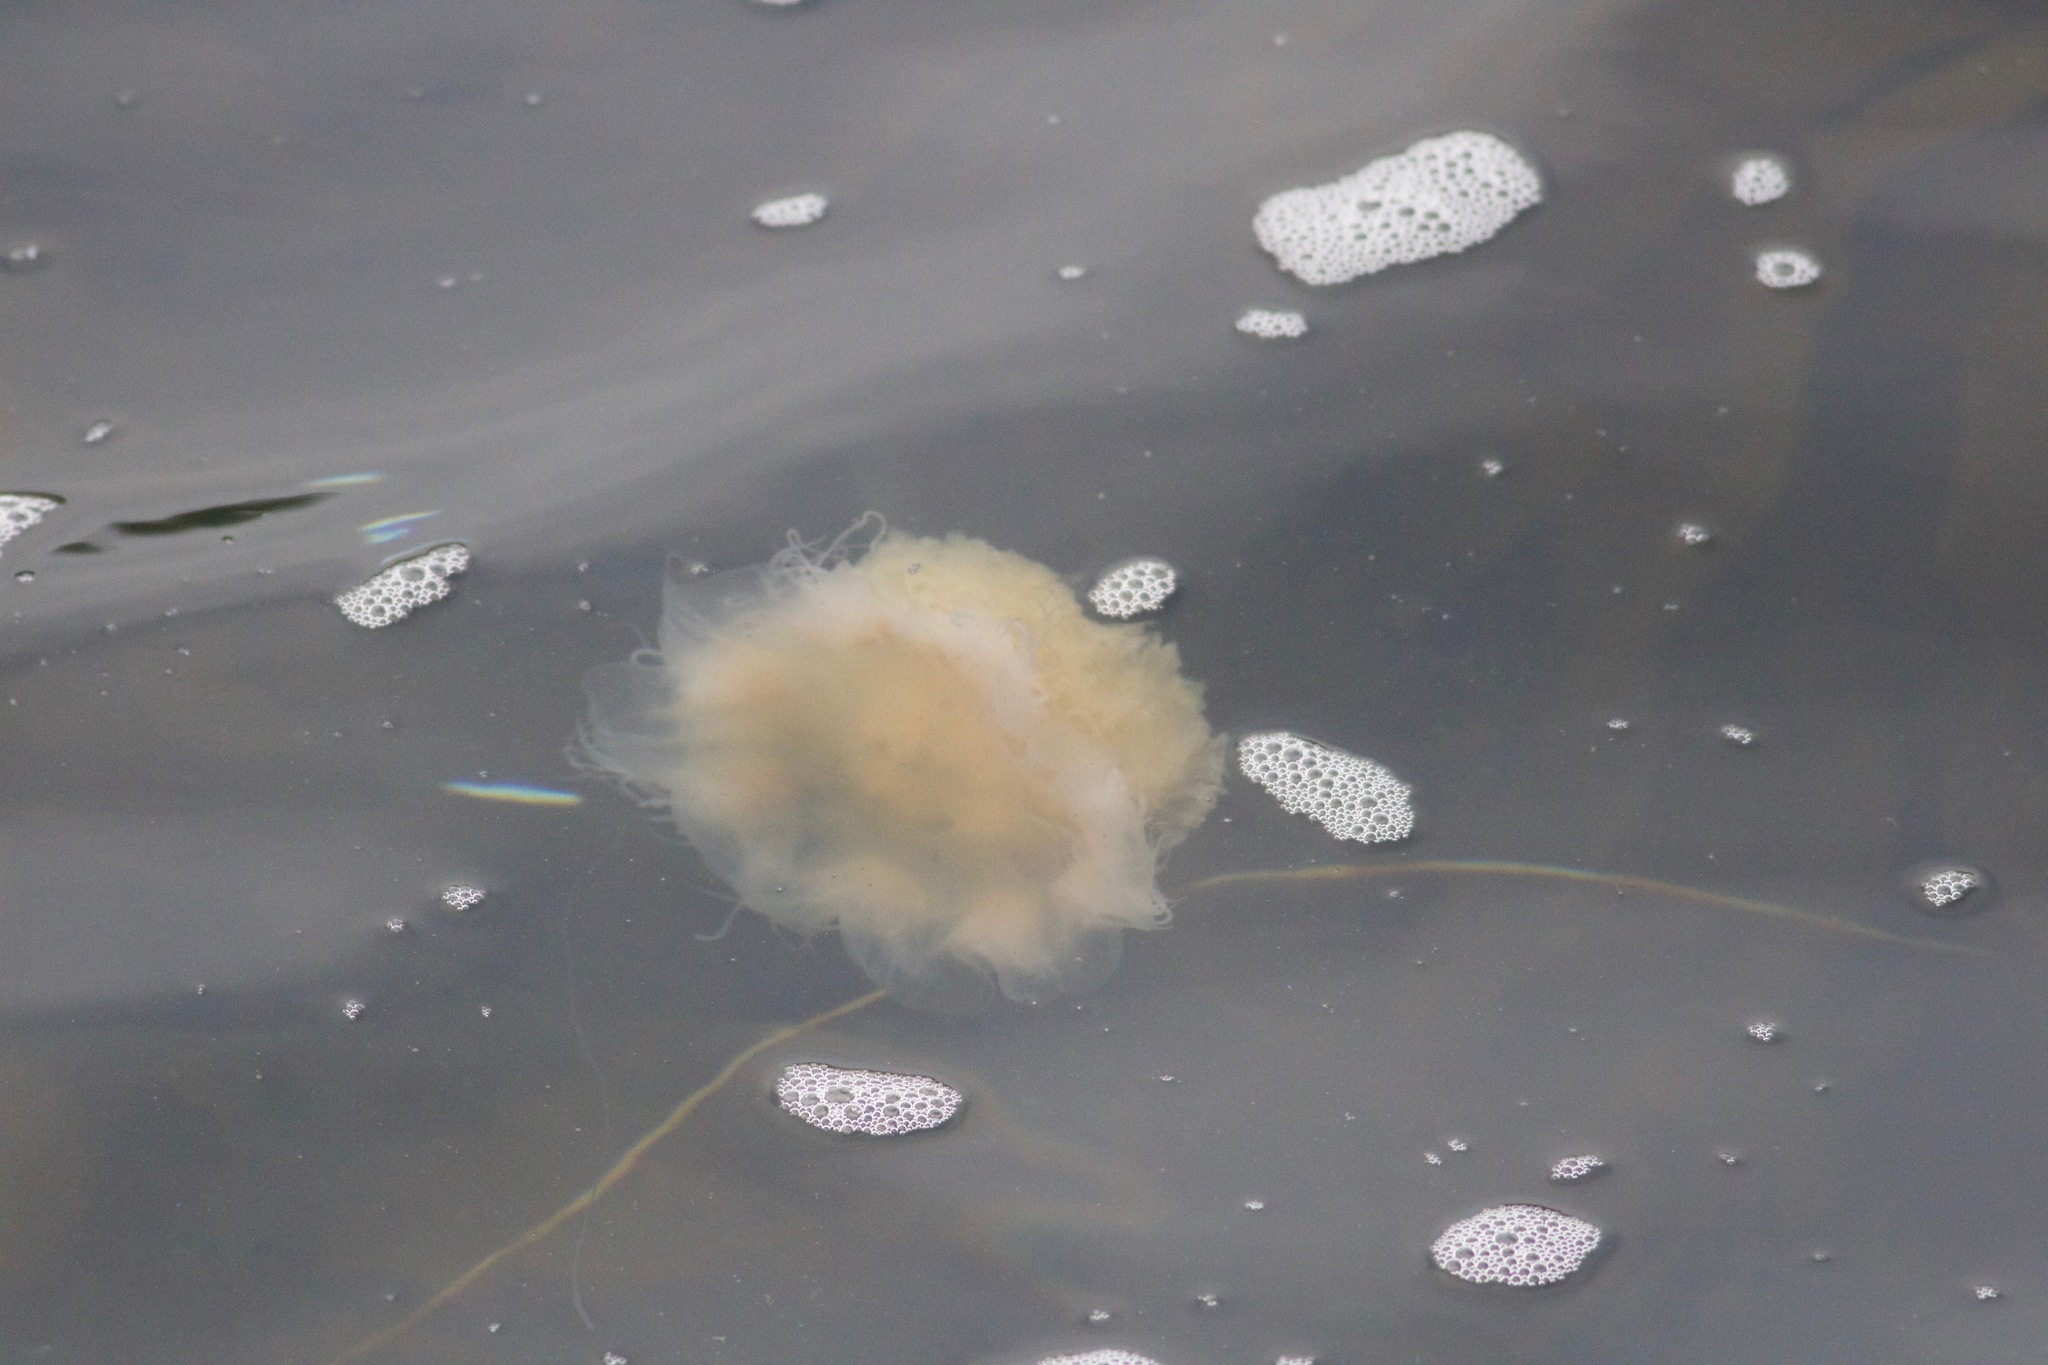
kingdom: Animalia
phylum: Cnidaria
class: Scyphozoa
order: Semaeostomeae
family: Cyaneidae
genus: Cyanea
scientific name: Cyanea capillata
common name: Lion's mane jellyfish
